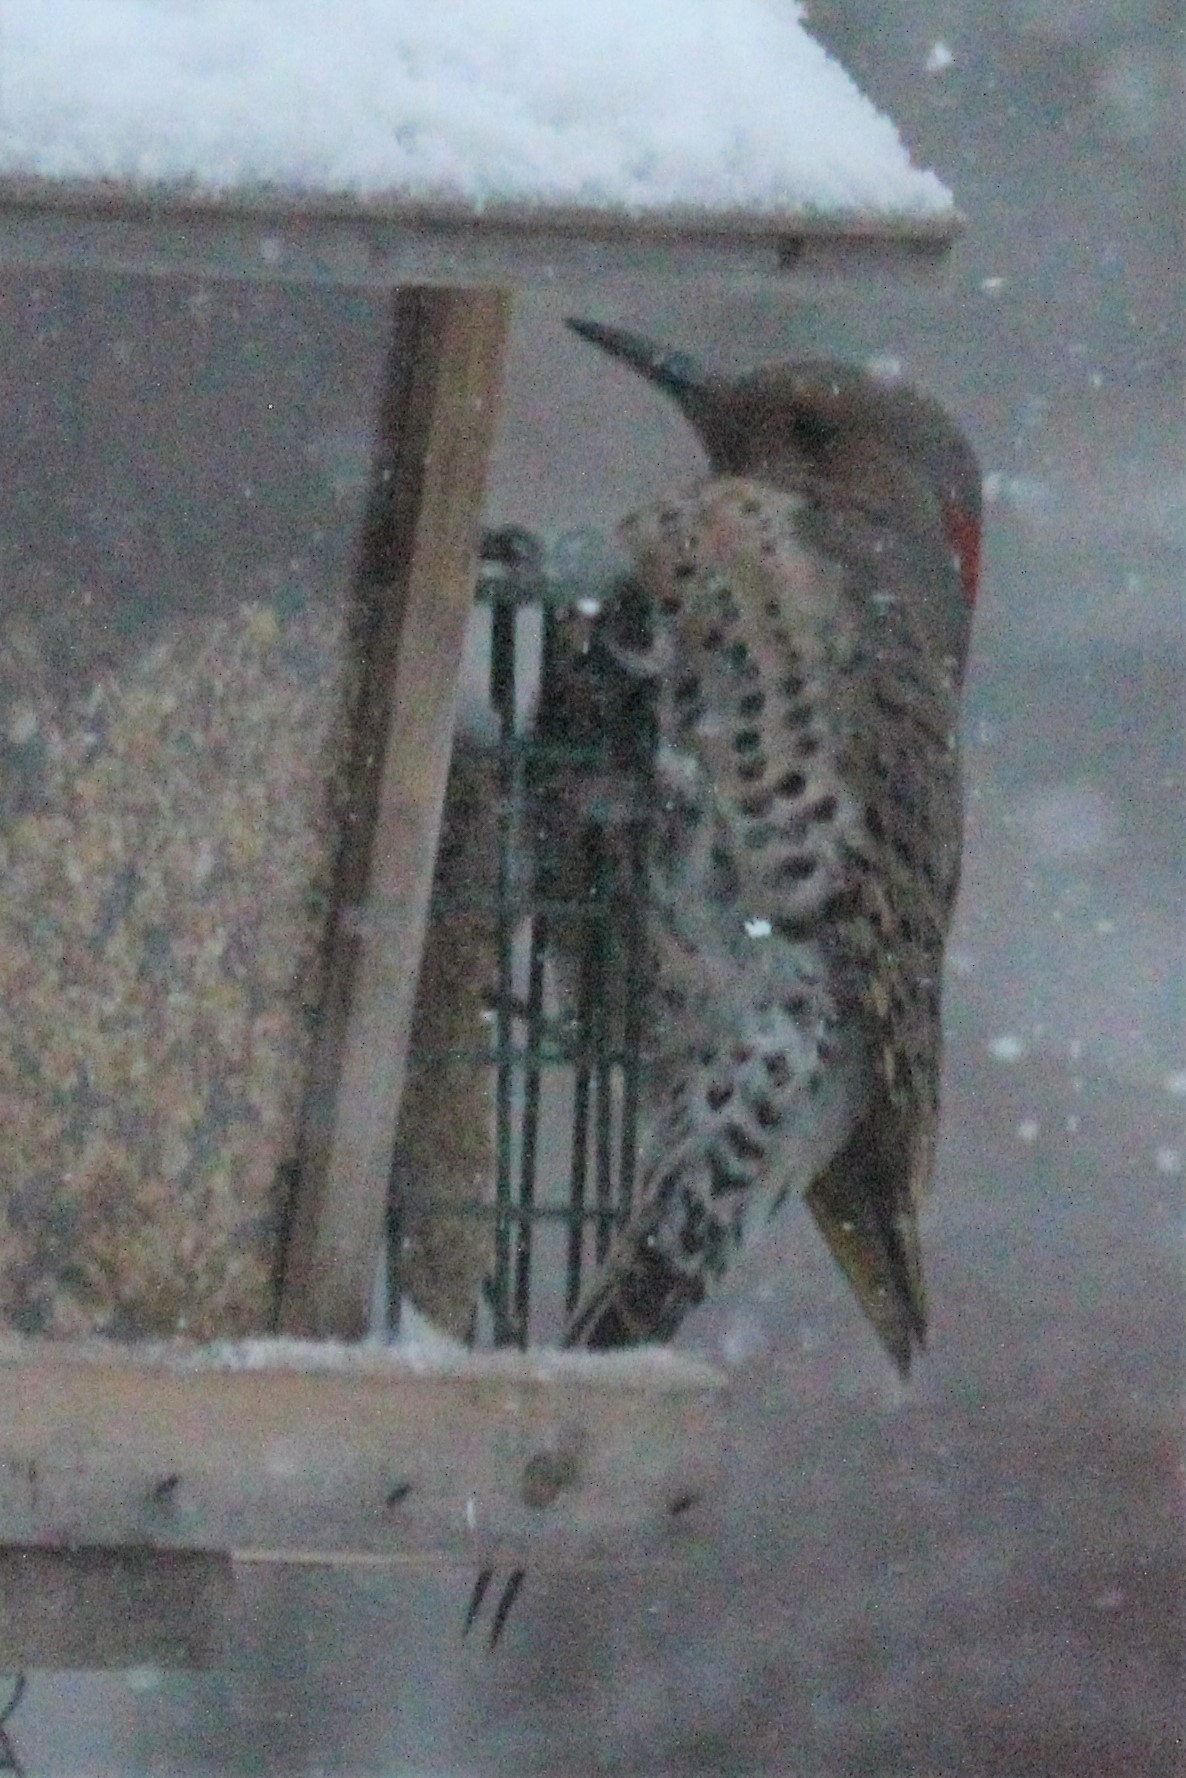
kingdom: Animalia
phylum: Chordata
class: Aves
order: Piciformes
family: Picidae
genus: Colaptes
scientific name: Colaptes auratus
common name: Northern flicker
